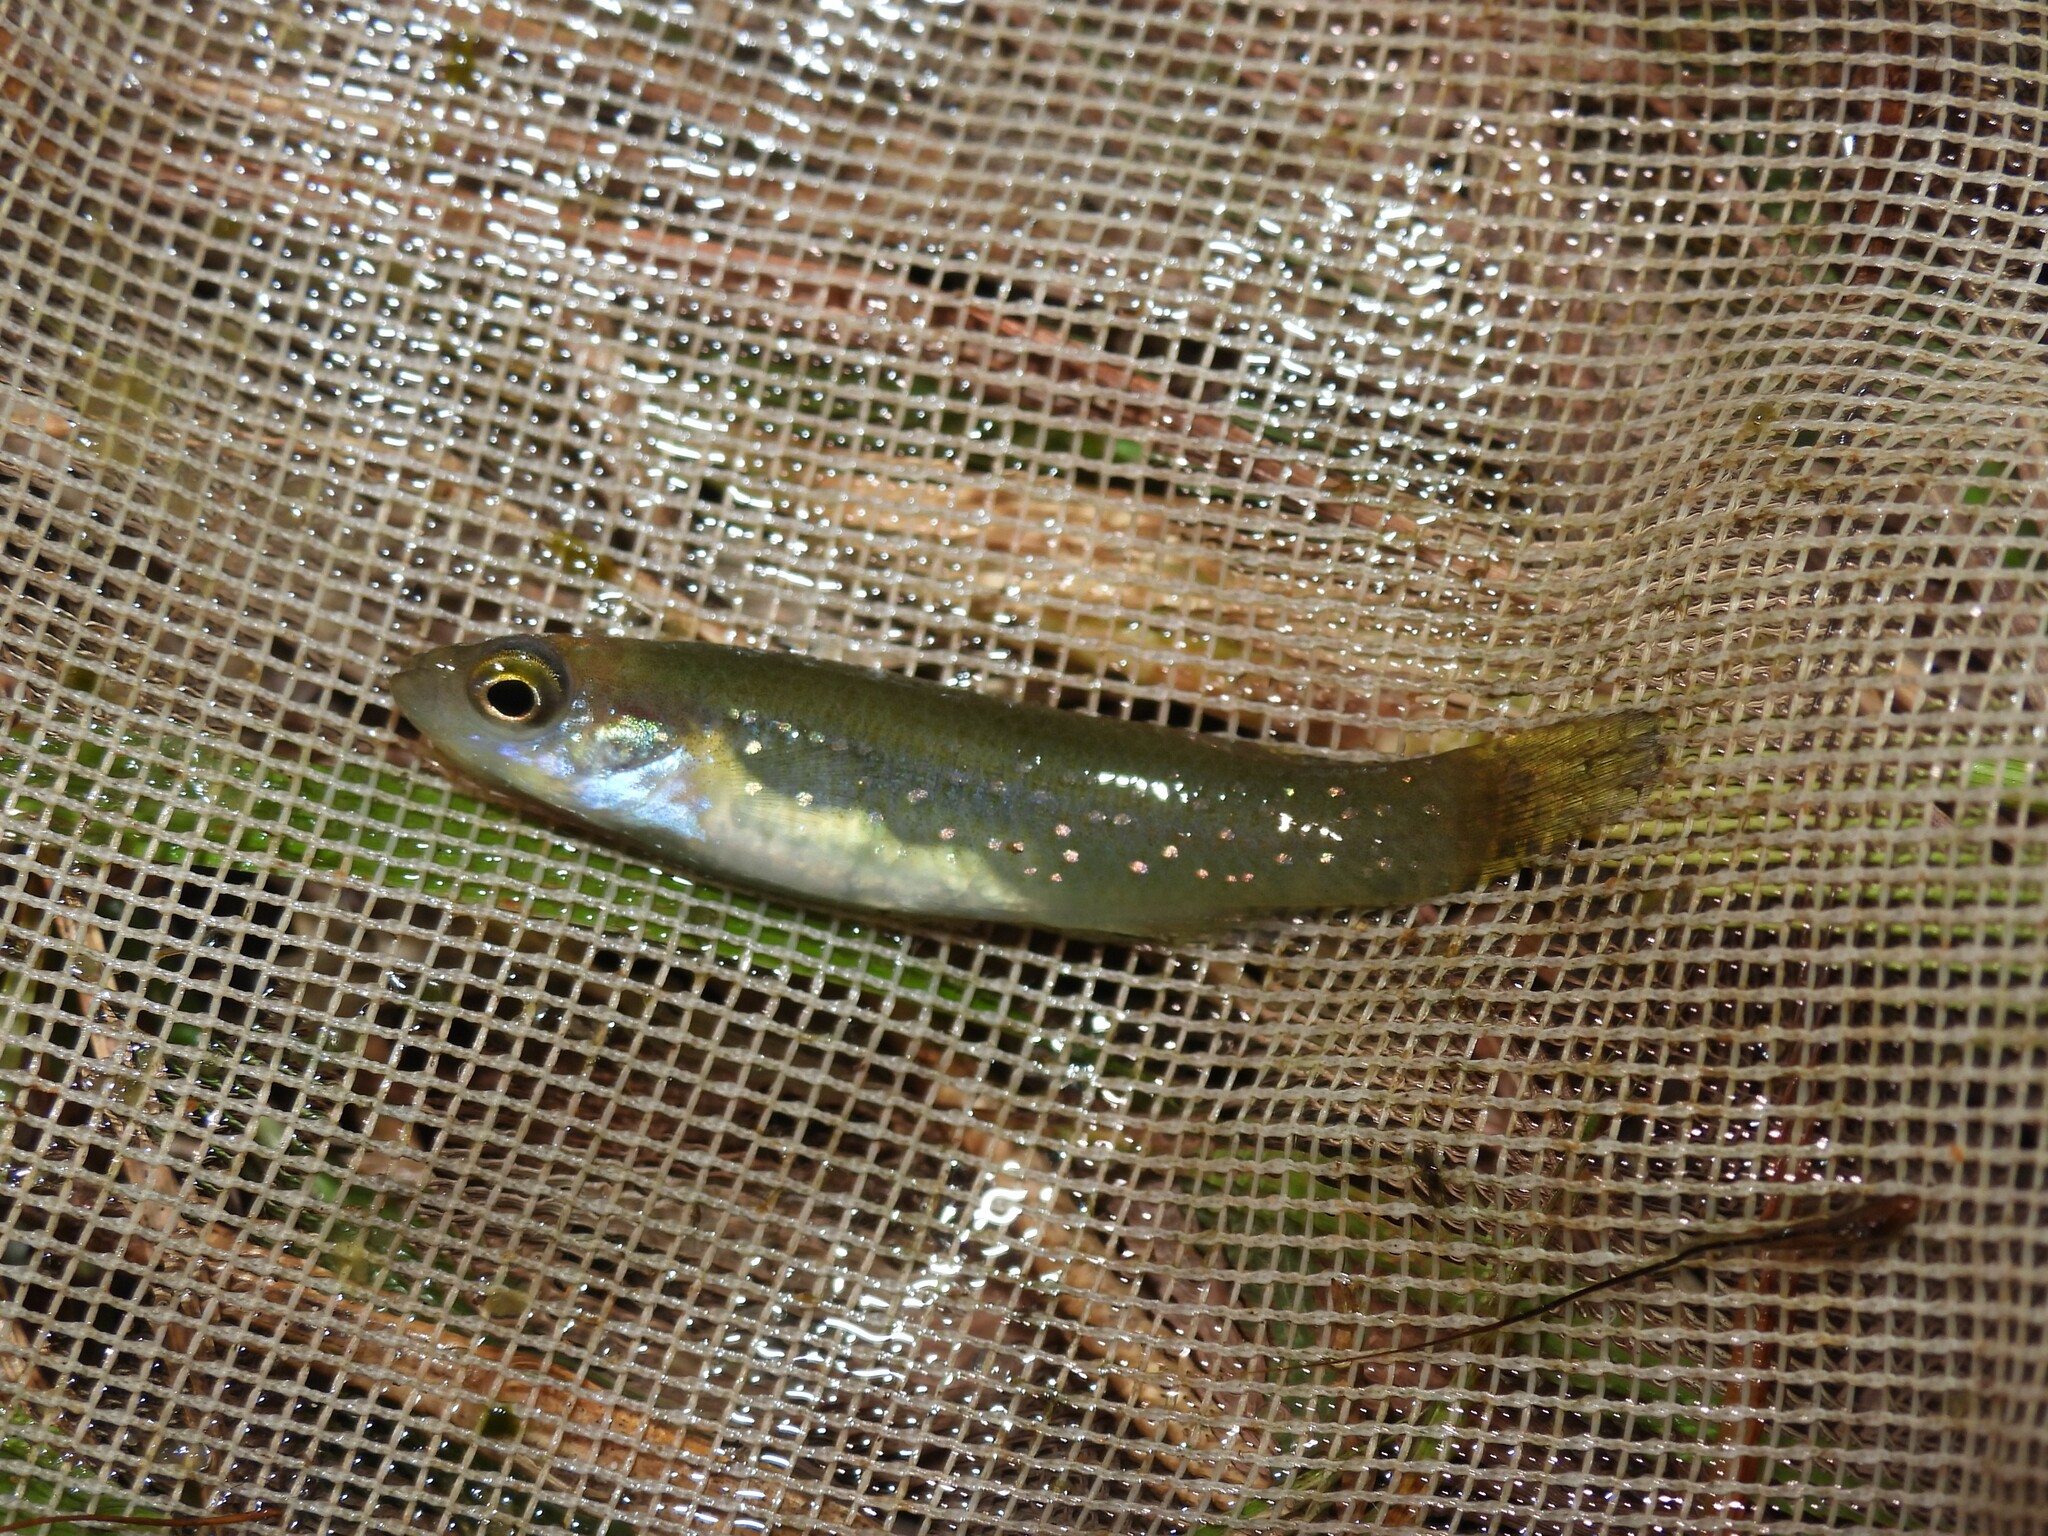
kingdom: Animalia
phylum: Chordata
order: Cyprinodontiformes
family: Fundulidae
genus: Fundulus
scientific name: Fundulus chrysotus
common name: Golden topminnow
